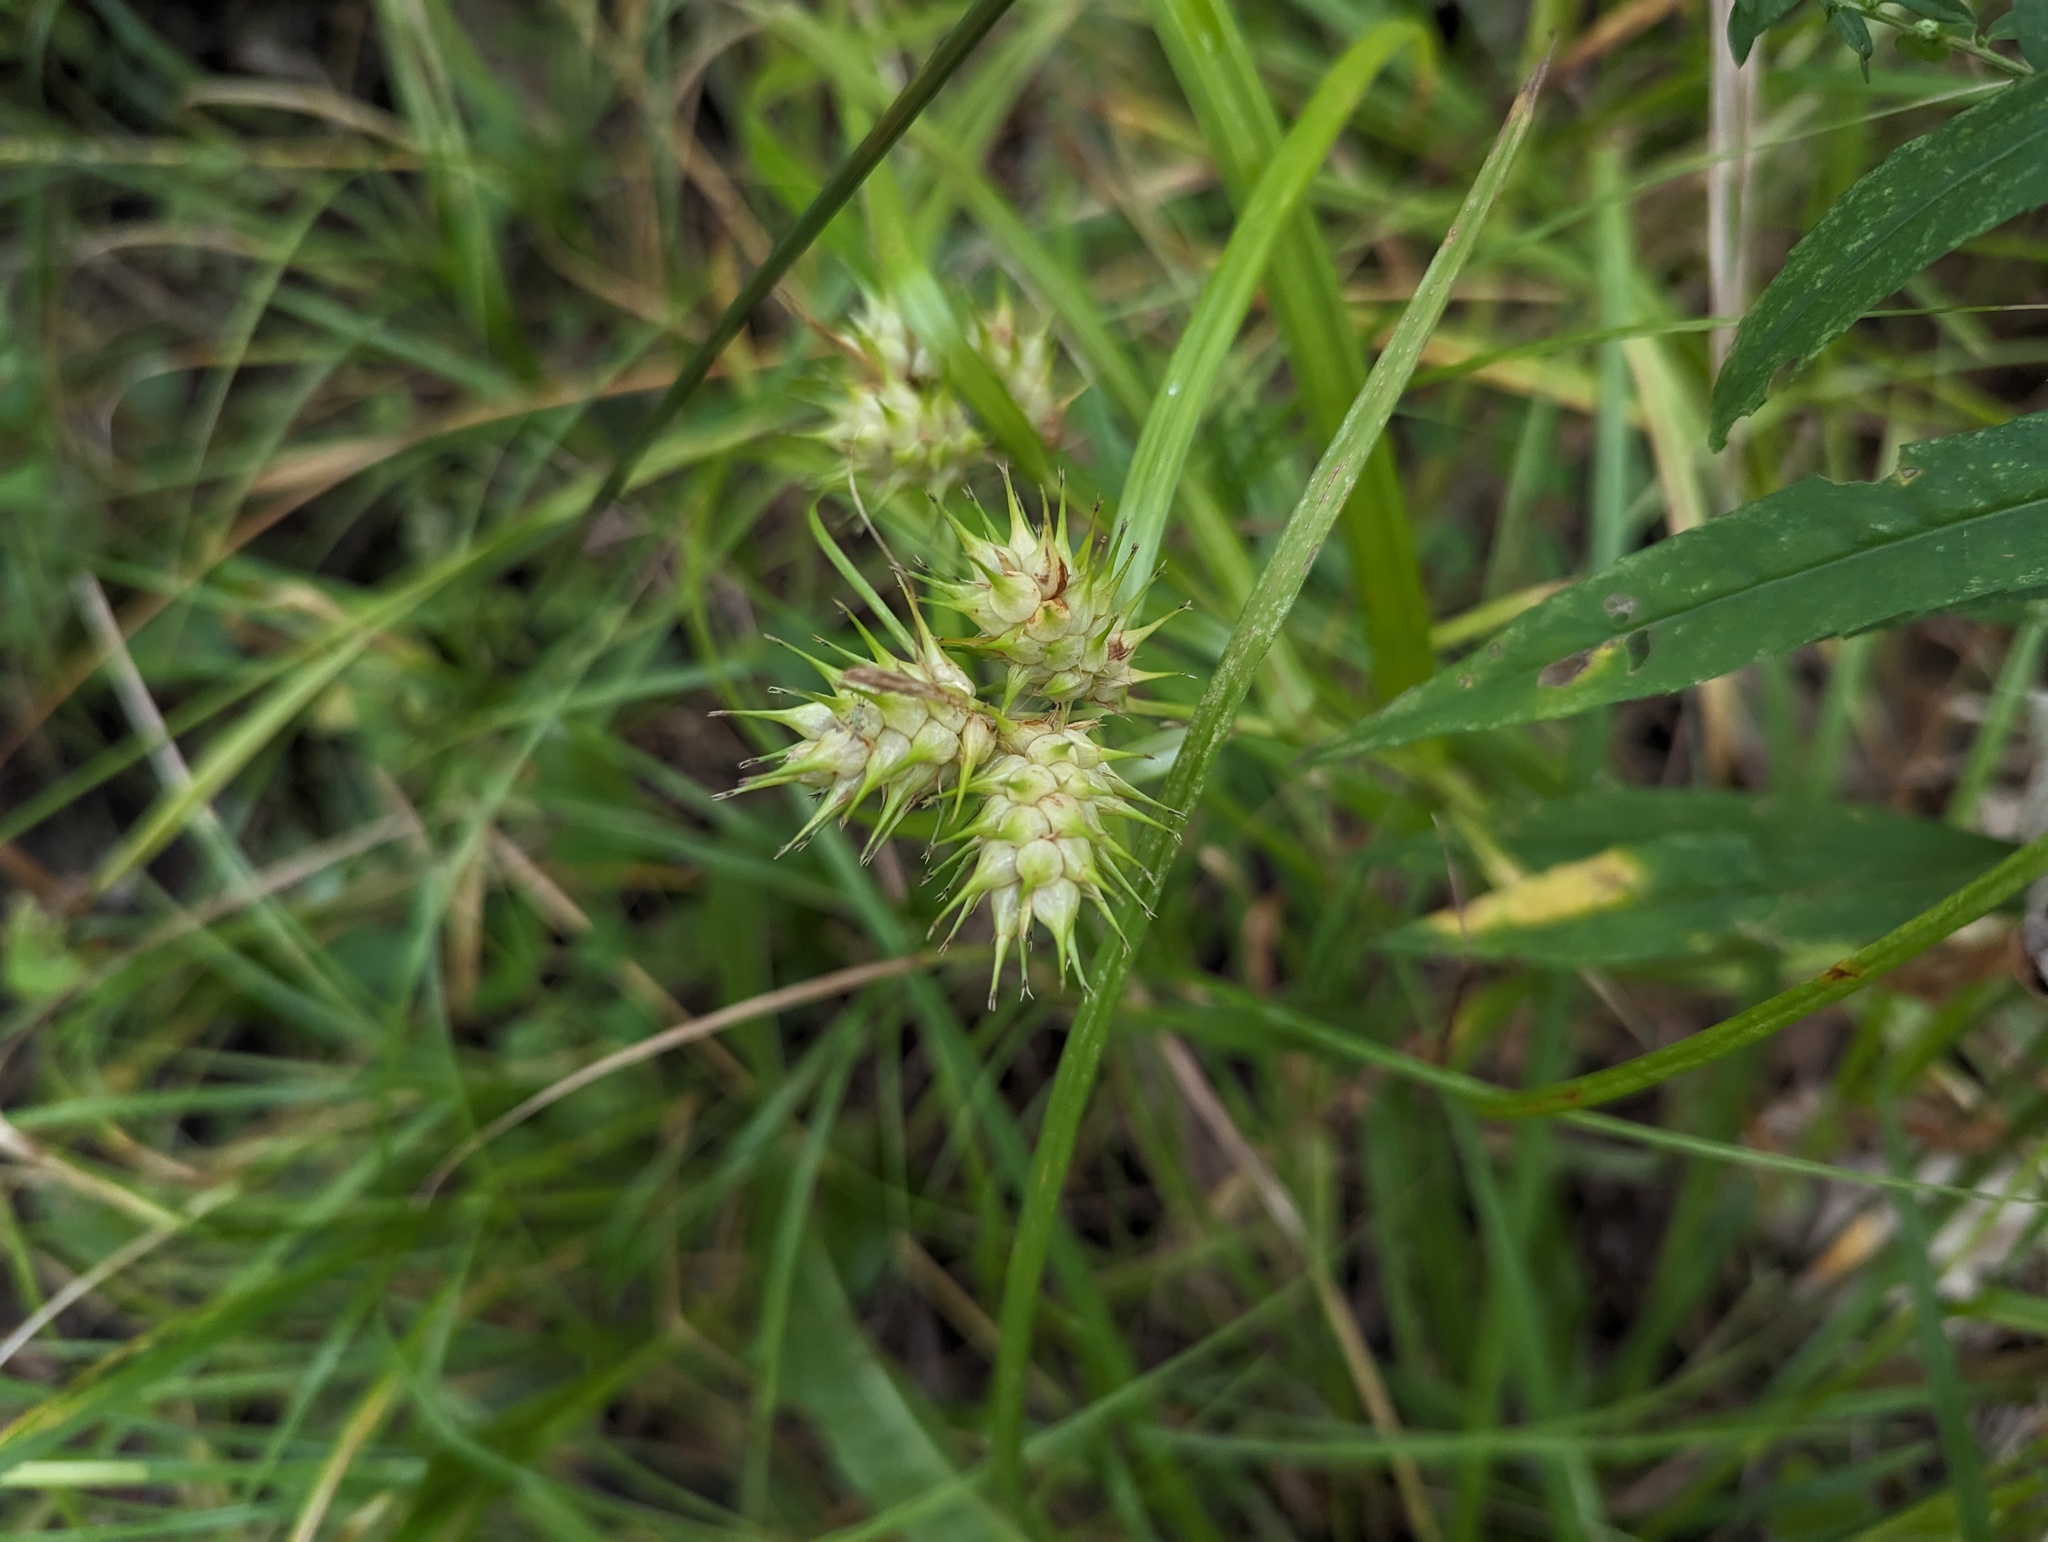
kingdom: Plantae
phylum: Tracheophyta
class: Liliopsida
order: Poales
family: Cyperaceae
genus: Carex
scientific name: Carex lupulina
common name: Hop sedge
